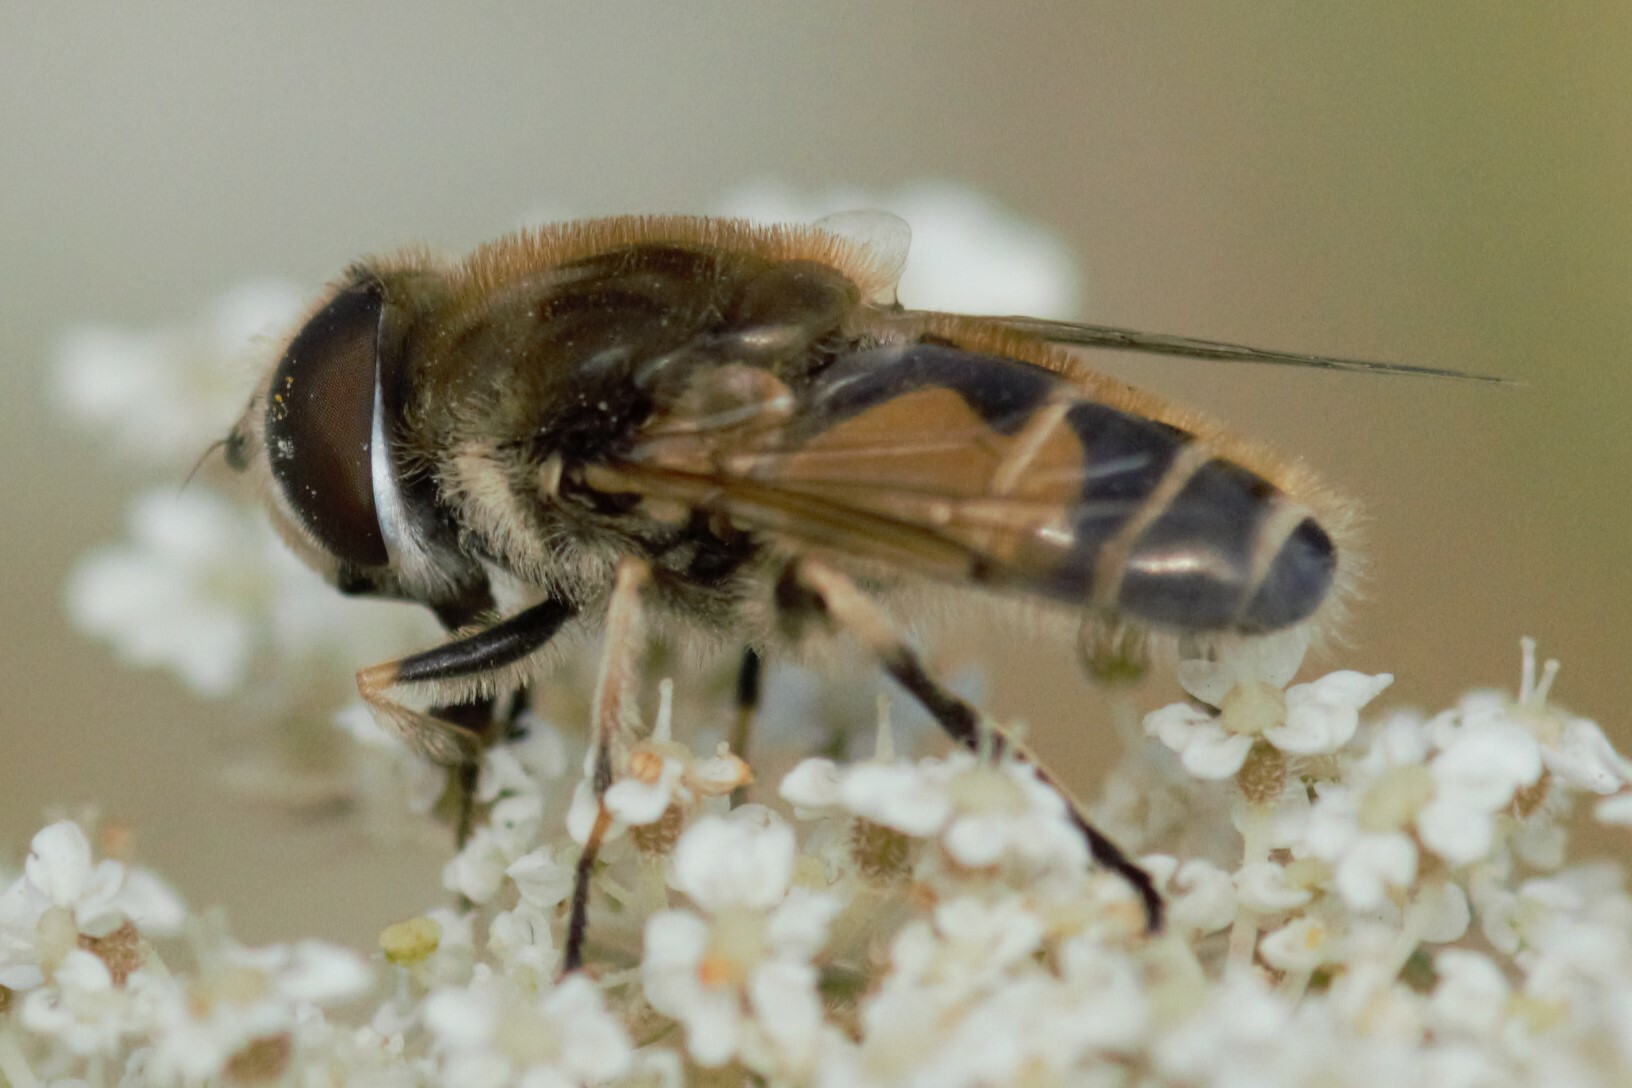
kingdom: Animalia
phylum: Arthropoda
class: Insecta
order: Diptera
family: Syrphidae
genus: Eristalis
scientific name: Eristalis arbustorum
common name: Hover fly
